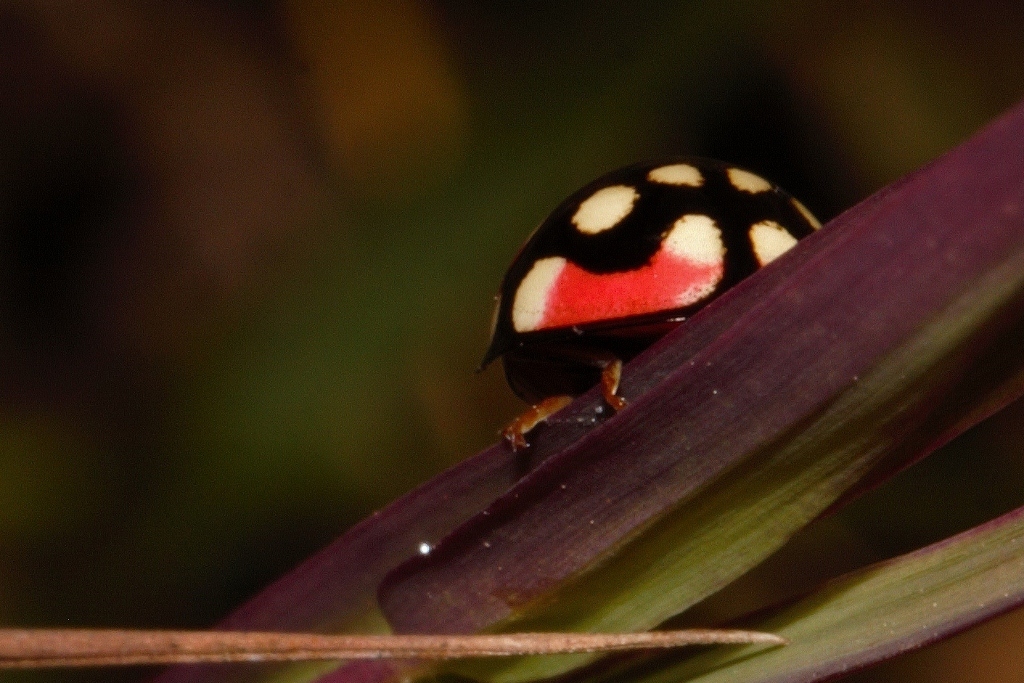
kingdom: Animalia
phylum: Arthropoda
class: Insecta
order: Coleoptera
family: Coccinellidae
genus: Cheilomenes
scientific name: Cheilomenes sulphurea
